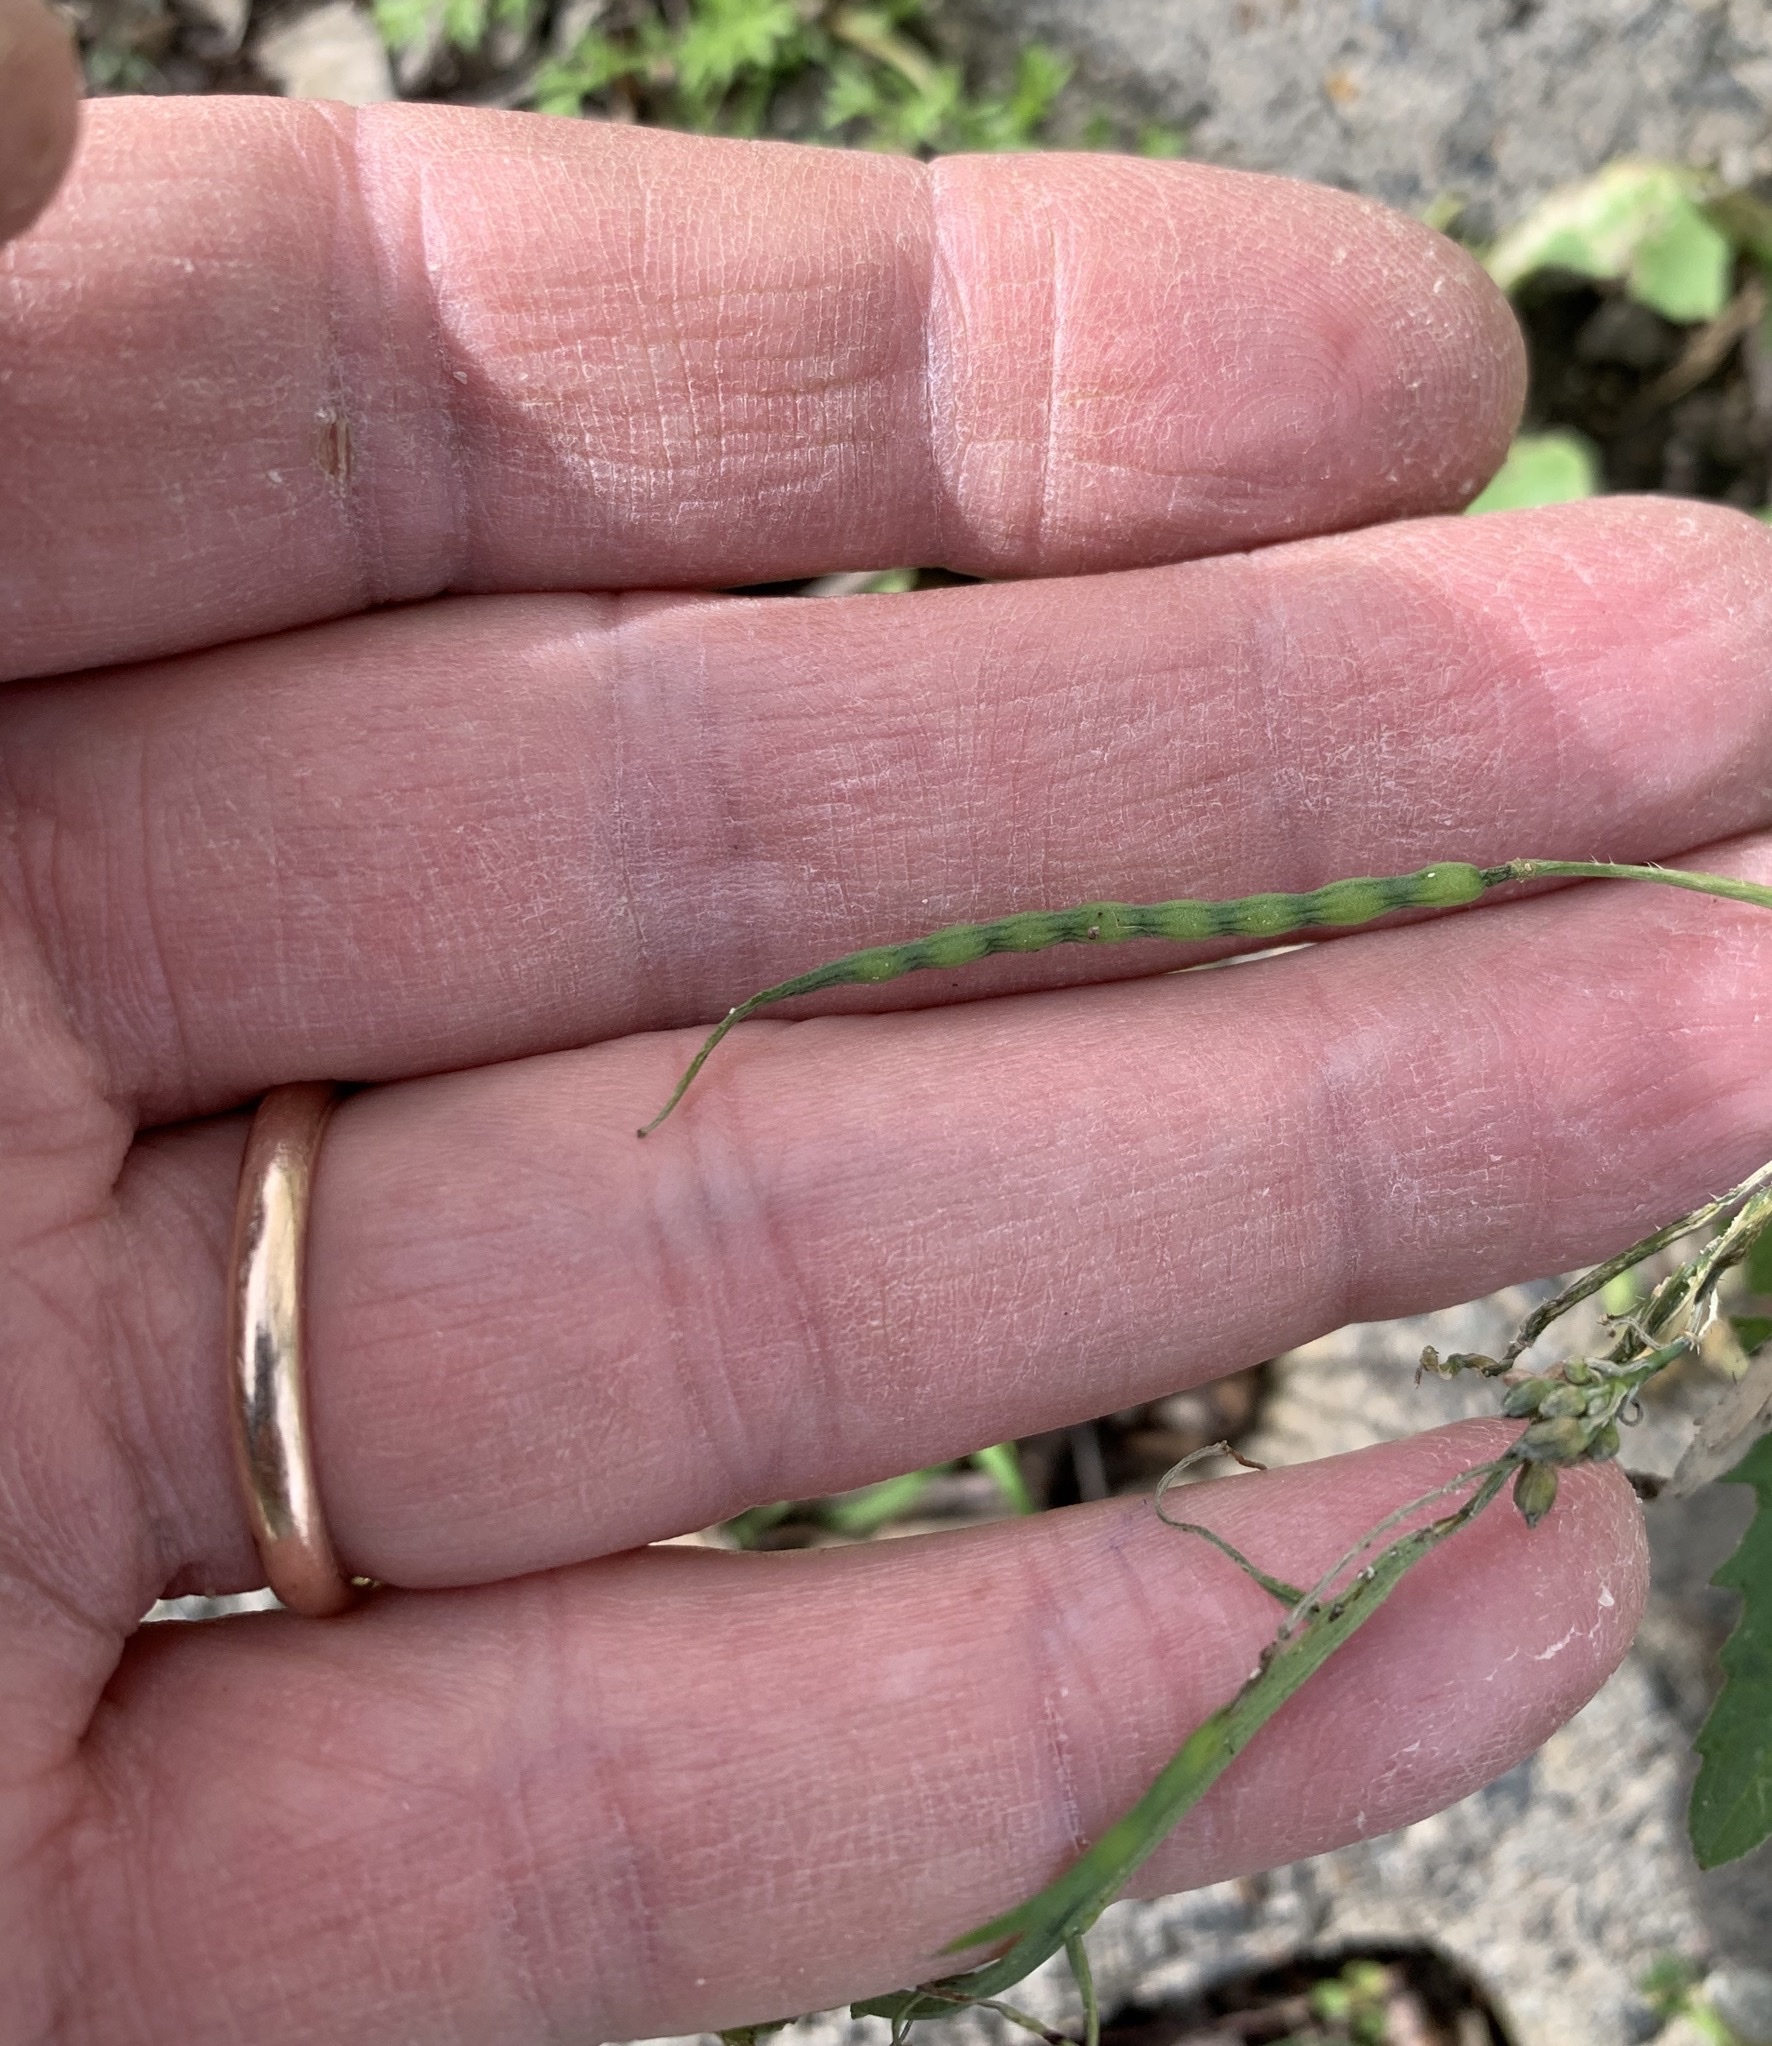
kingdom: Plantae
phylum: Tracheophyta
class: Magnoliopsida
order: Brassicales
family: Brassicaceae
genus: Raphanus
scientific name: Raphanus raphanistrum
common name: Wild radish
